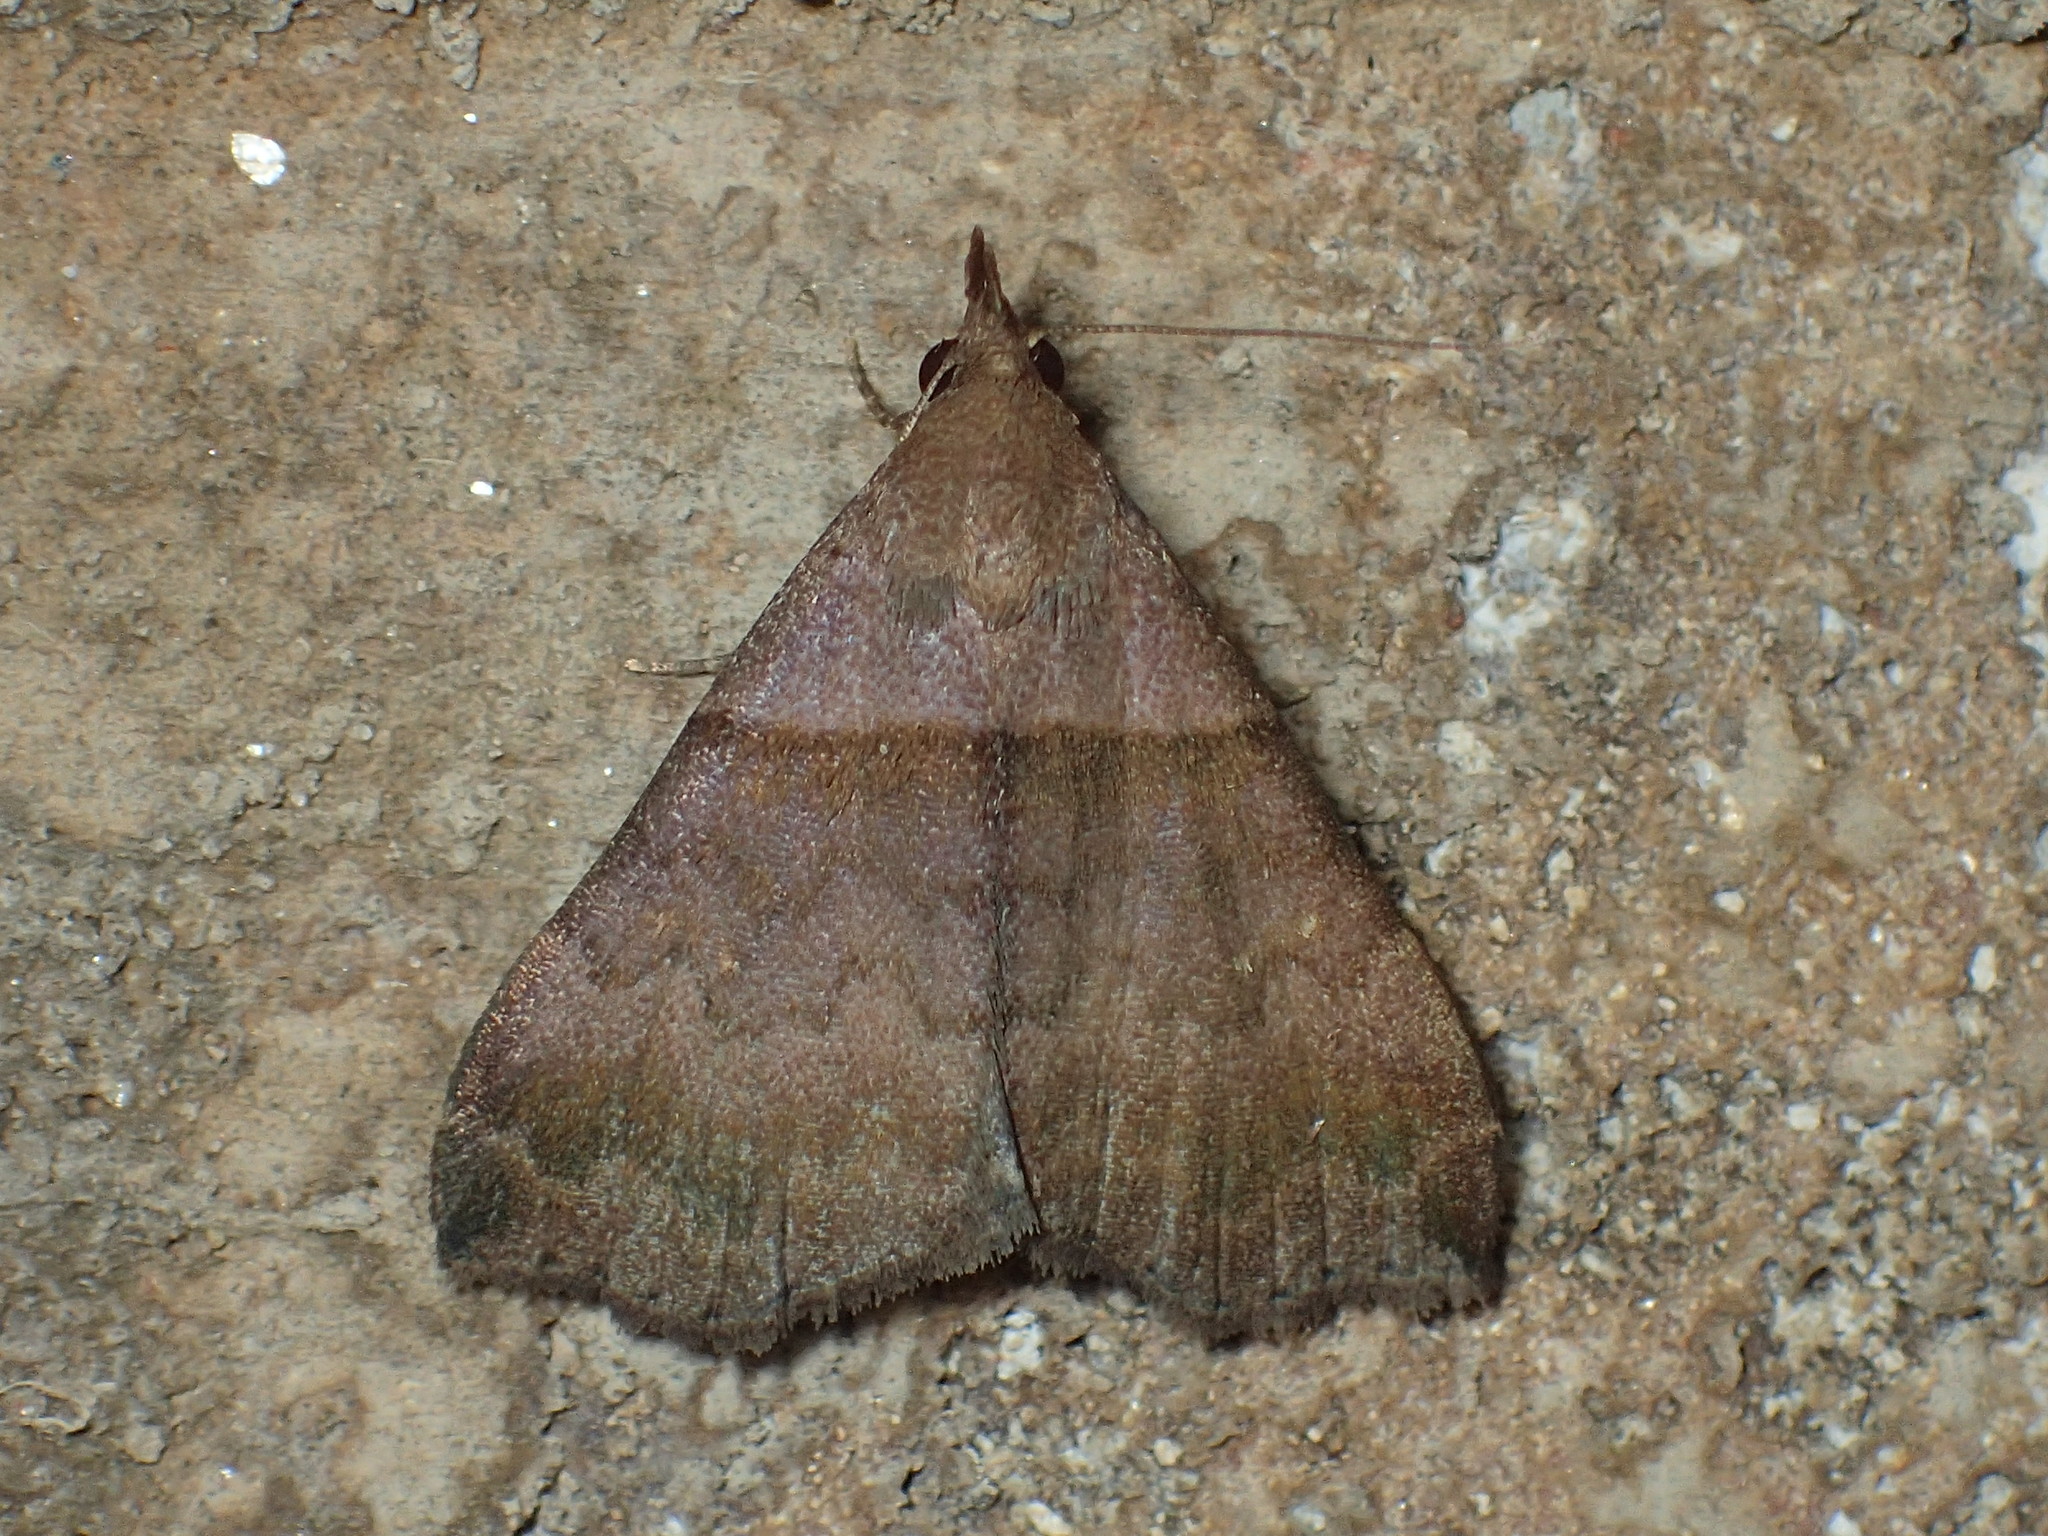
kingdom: Animalia
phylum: Arthropoda
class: Insecta
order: Lepidoptera
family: Erebidae
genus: Lascoria
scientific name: Lascoria ambigualis
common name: Ambiguous moth
